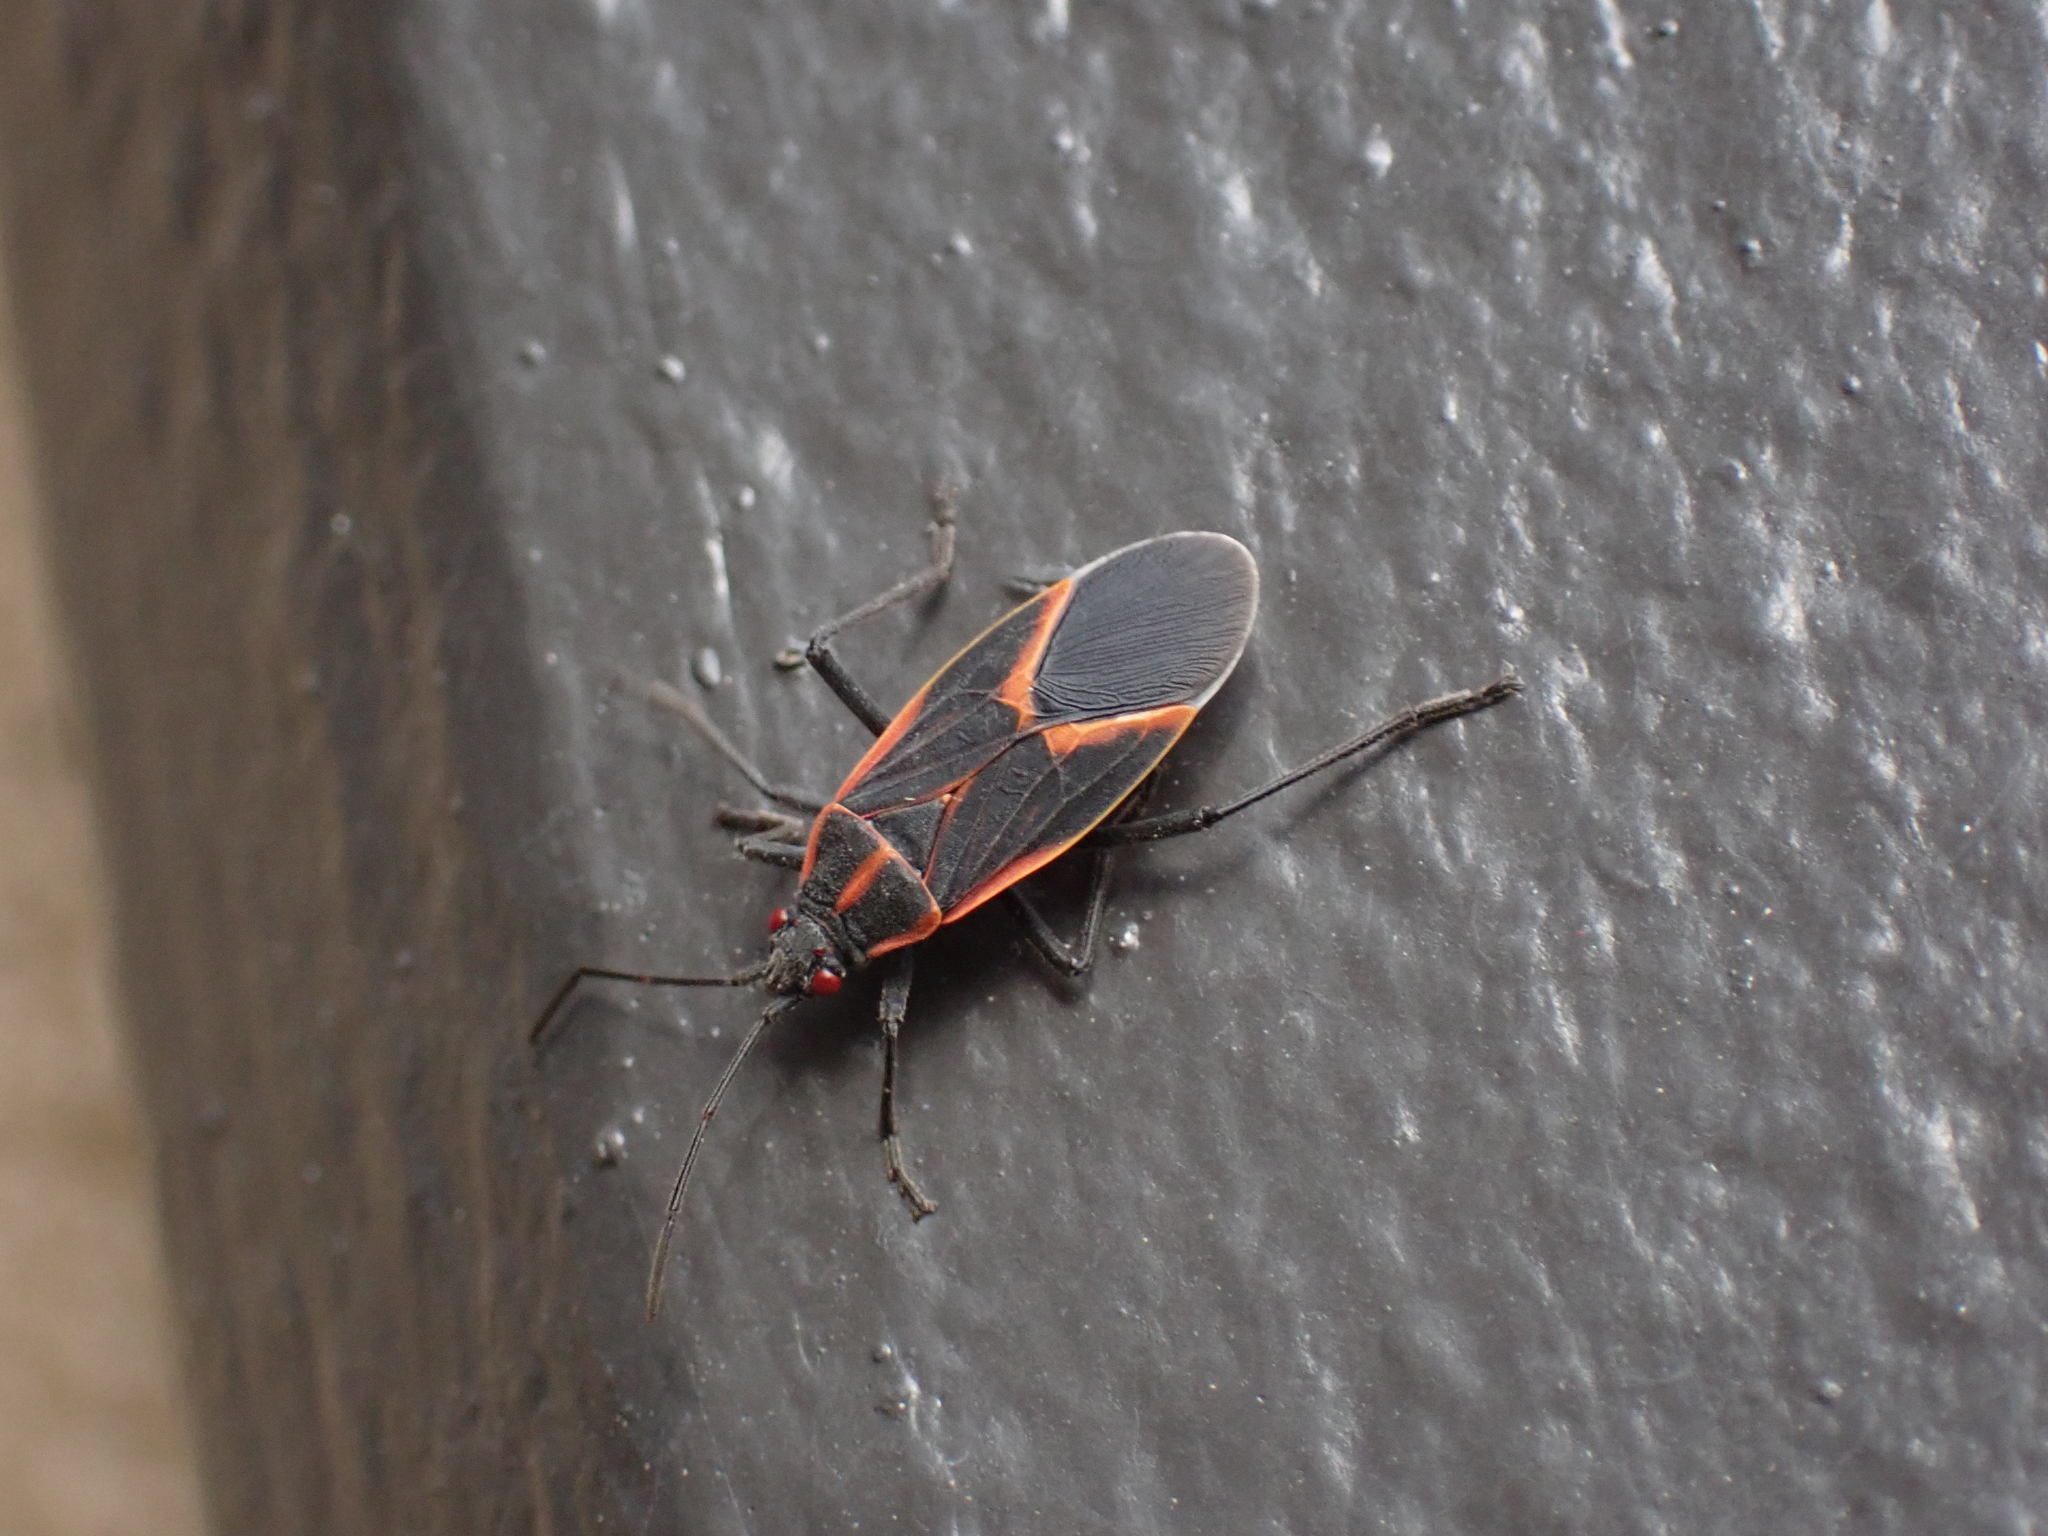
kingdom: Animalia
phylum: Arthropoda
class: Insecta
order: Hemiptera
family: Rhopalidae
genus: Boisea
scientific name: Boisea trivittata
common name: Boxelder bug
